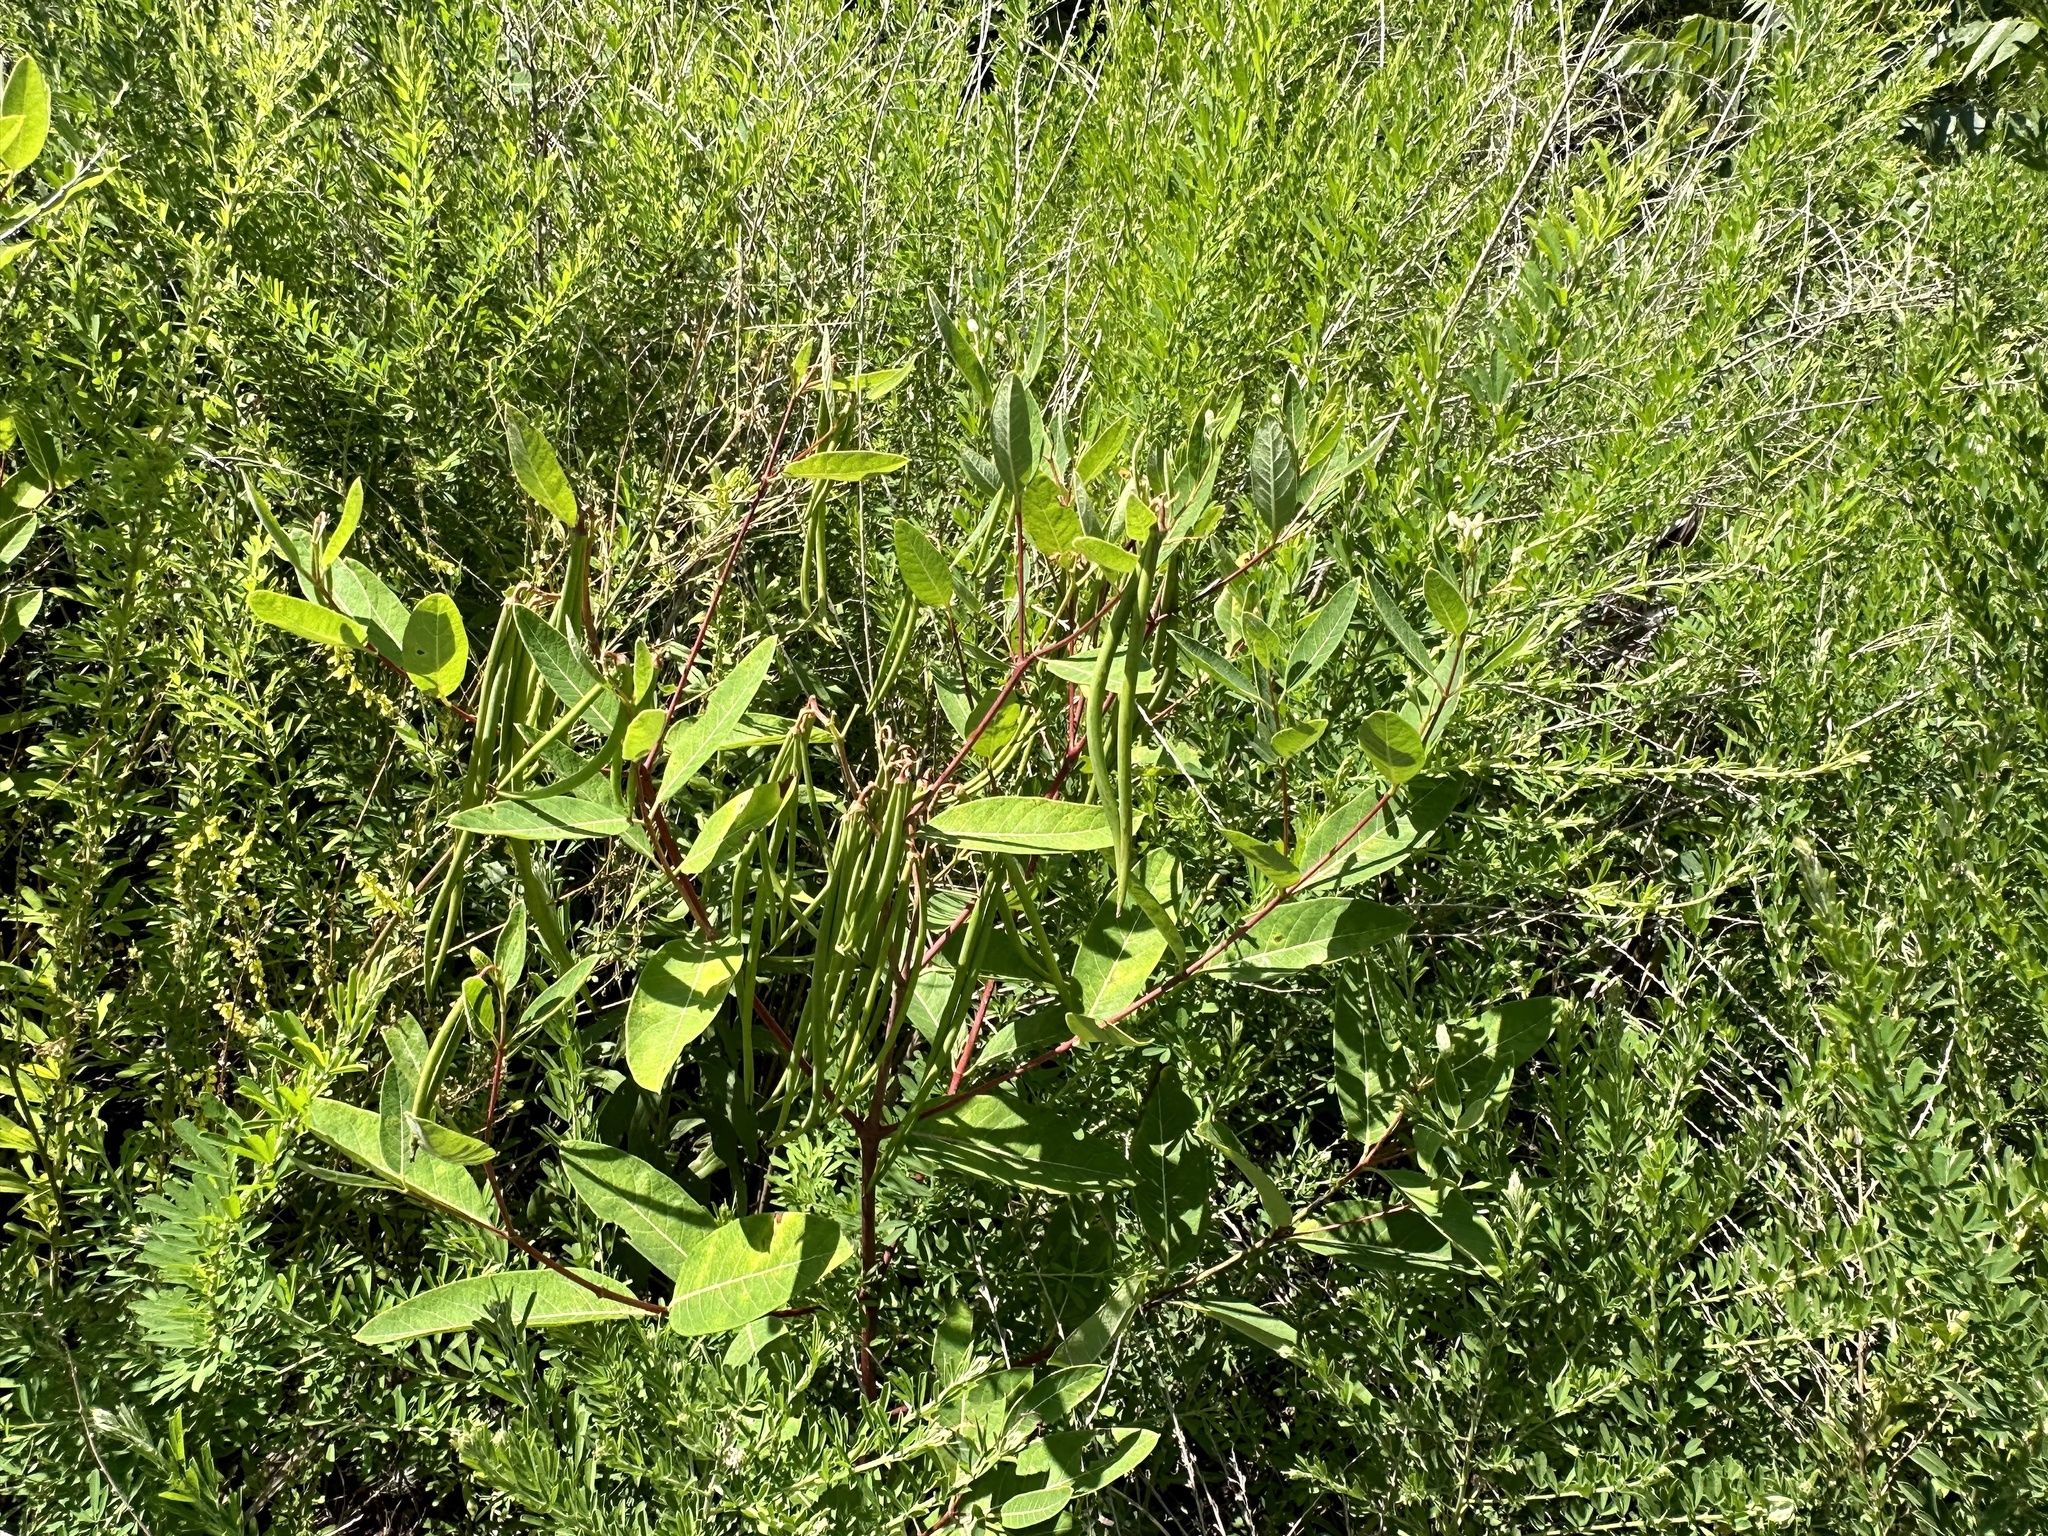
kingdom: Plantae
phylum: Tracheophyta
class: Magnoliopsida
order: Gentianales
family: Apocynaceae
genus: Apocynum
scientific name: Apocynum cannabinum
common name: Hemp dogbane
